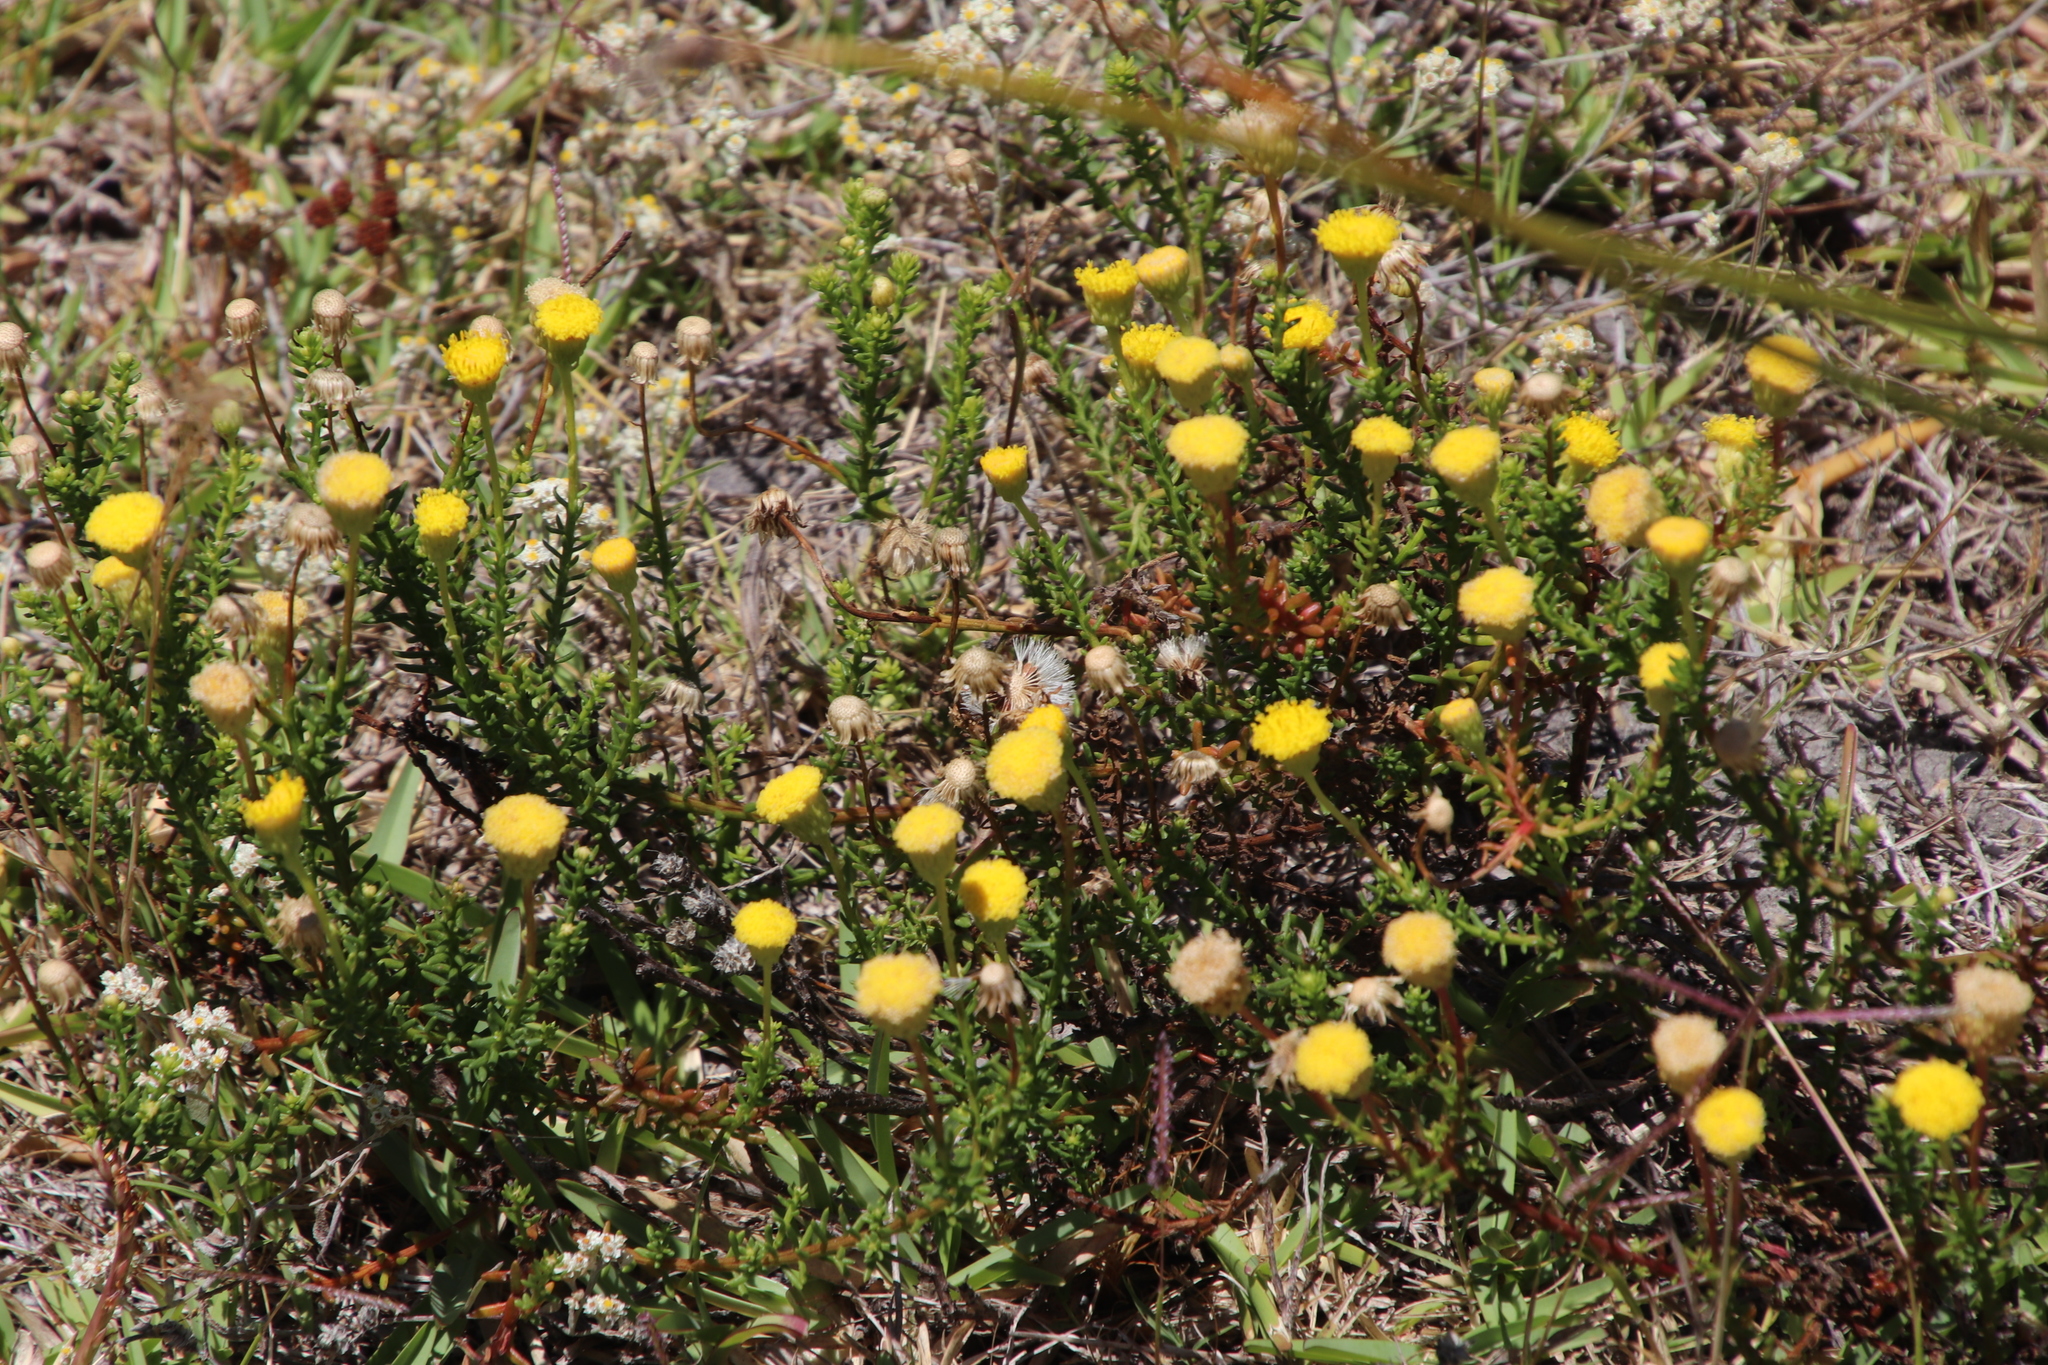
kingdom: Plantae
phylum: Tracheophyta
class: Magnoliopsida
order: Asterales
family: Asteraceae
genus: Chrysocoma
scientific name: Chrysocoma cernua
